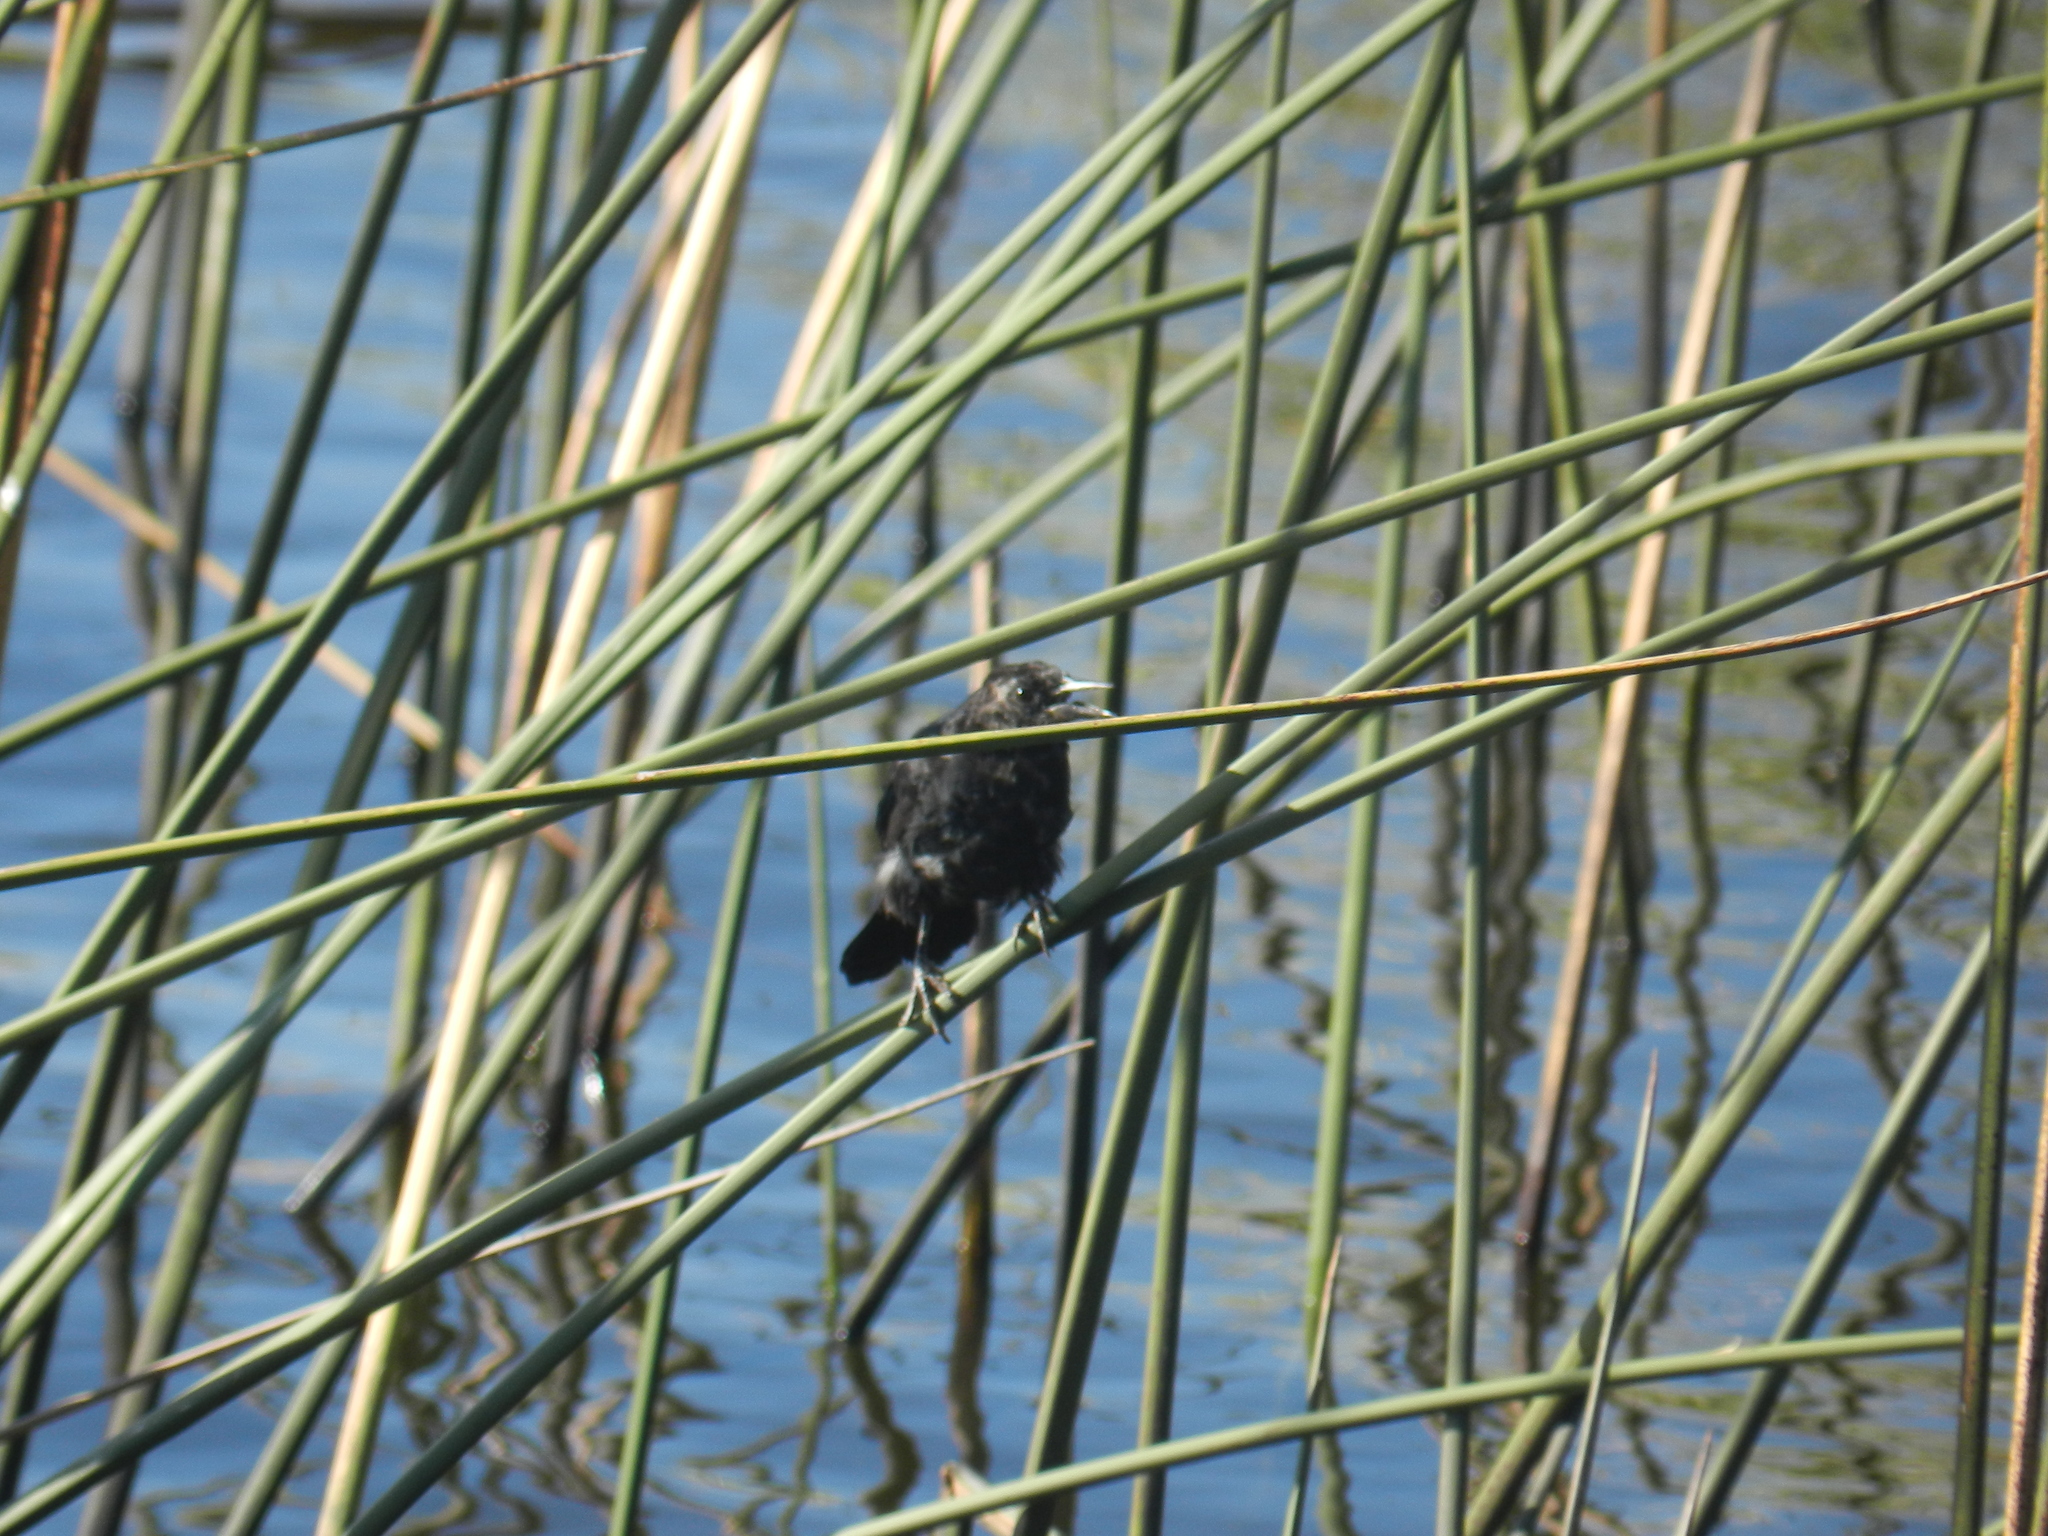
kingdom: Animalia
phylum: Chordata
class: Aves
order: Passeriformes
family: Icteridae
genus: Agelasticus
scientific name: Agelasticus cyanopus
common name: Unicolored blackbird
